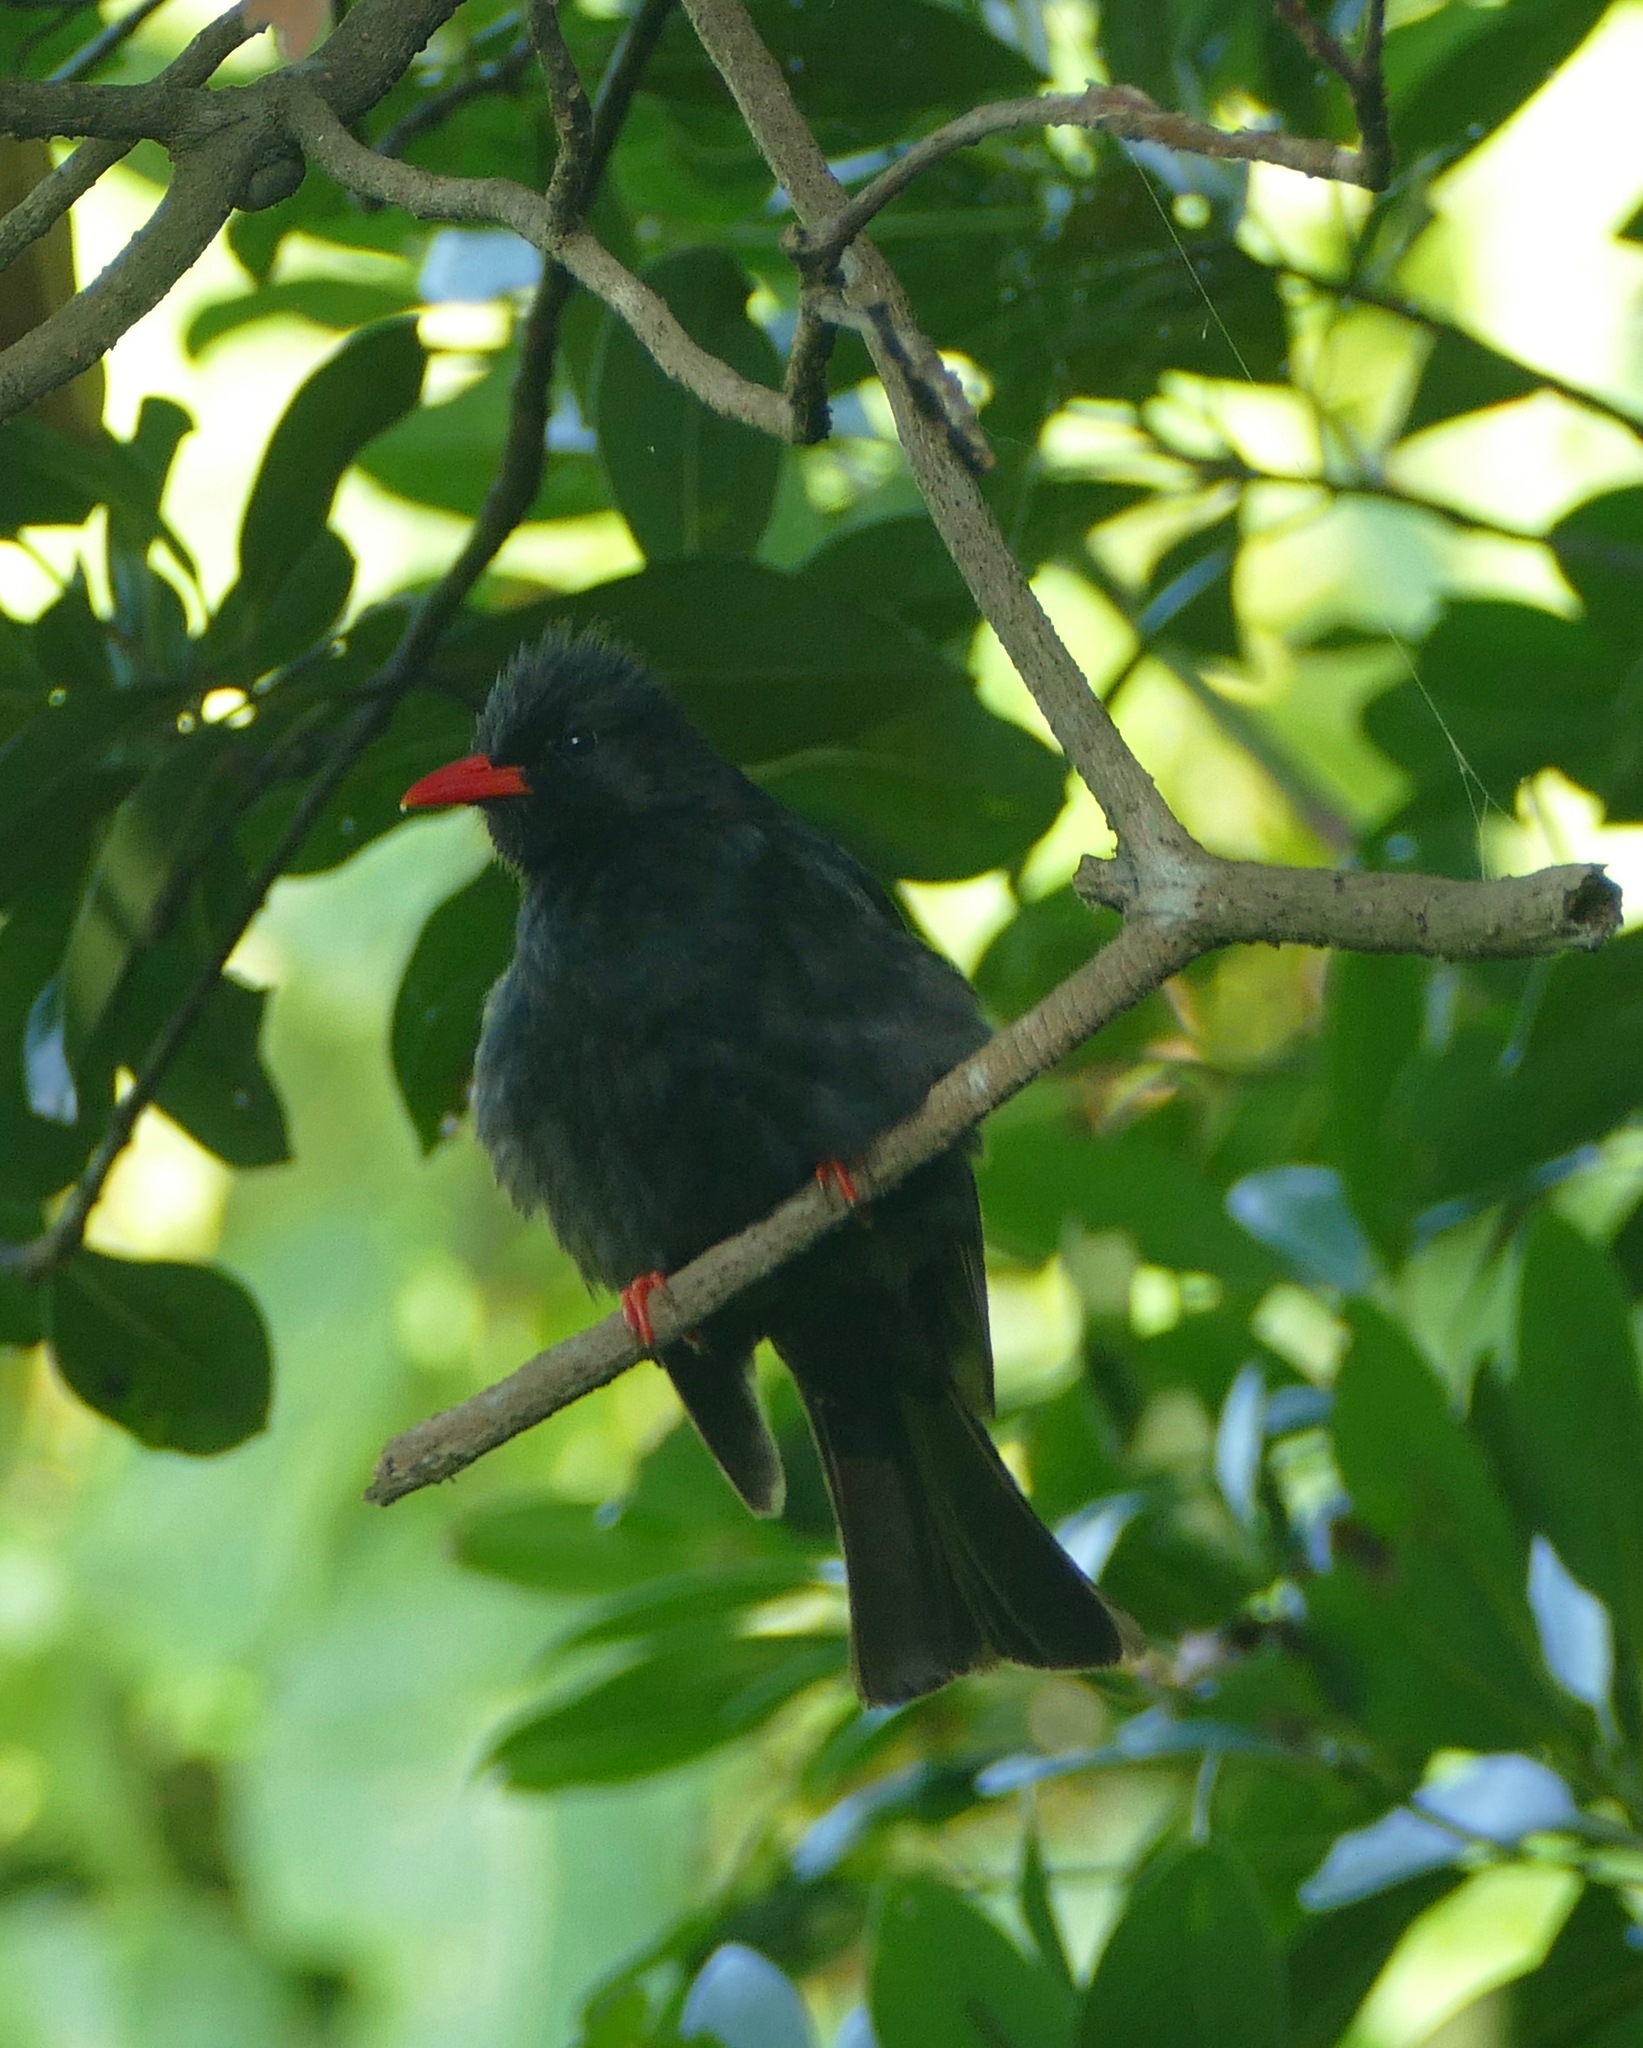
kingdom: Animalia
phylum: Chordata
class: Aves
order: Passeriformes
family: Pycnonotidae
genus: Hypsipetes
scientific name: Hypsipetes leucocephalus
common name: Black bulbul
